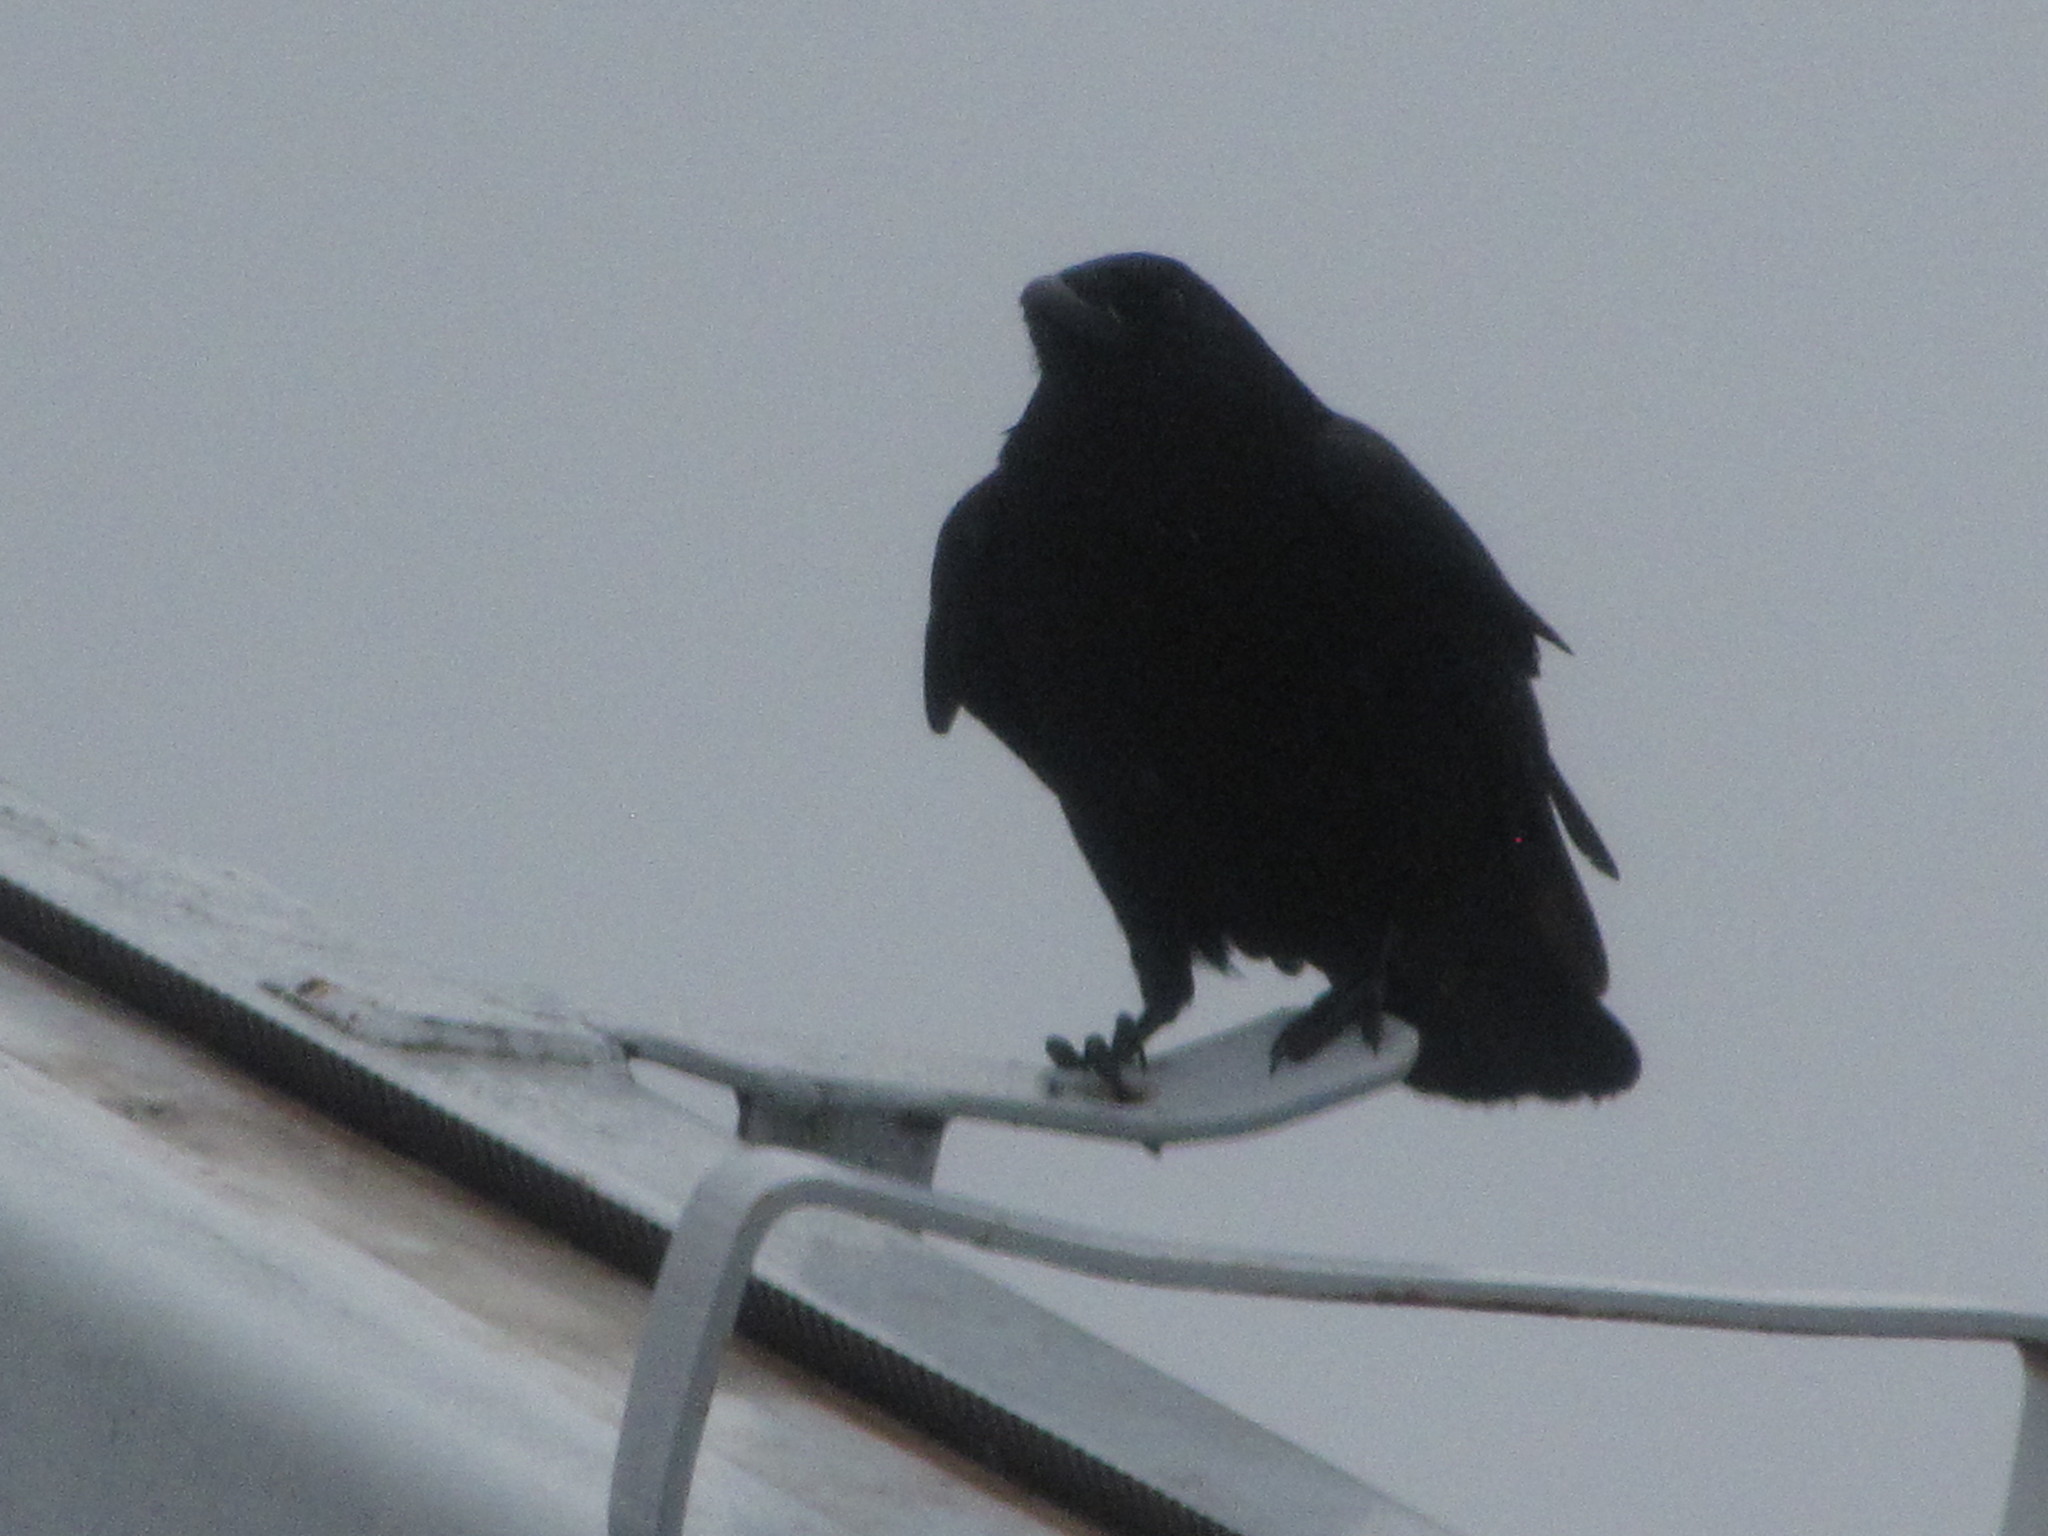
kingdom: Animalia
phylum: Chordata
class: Aves
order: Passeriformes
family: Corvidae
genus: Corvus
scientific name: Corvus brachyrhynchos
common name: American crow
